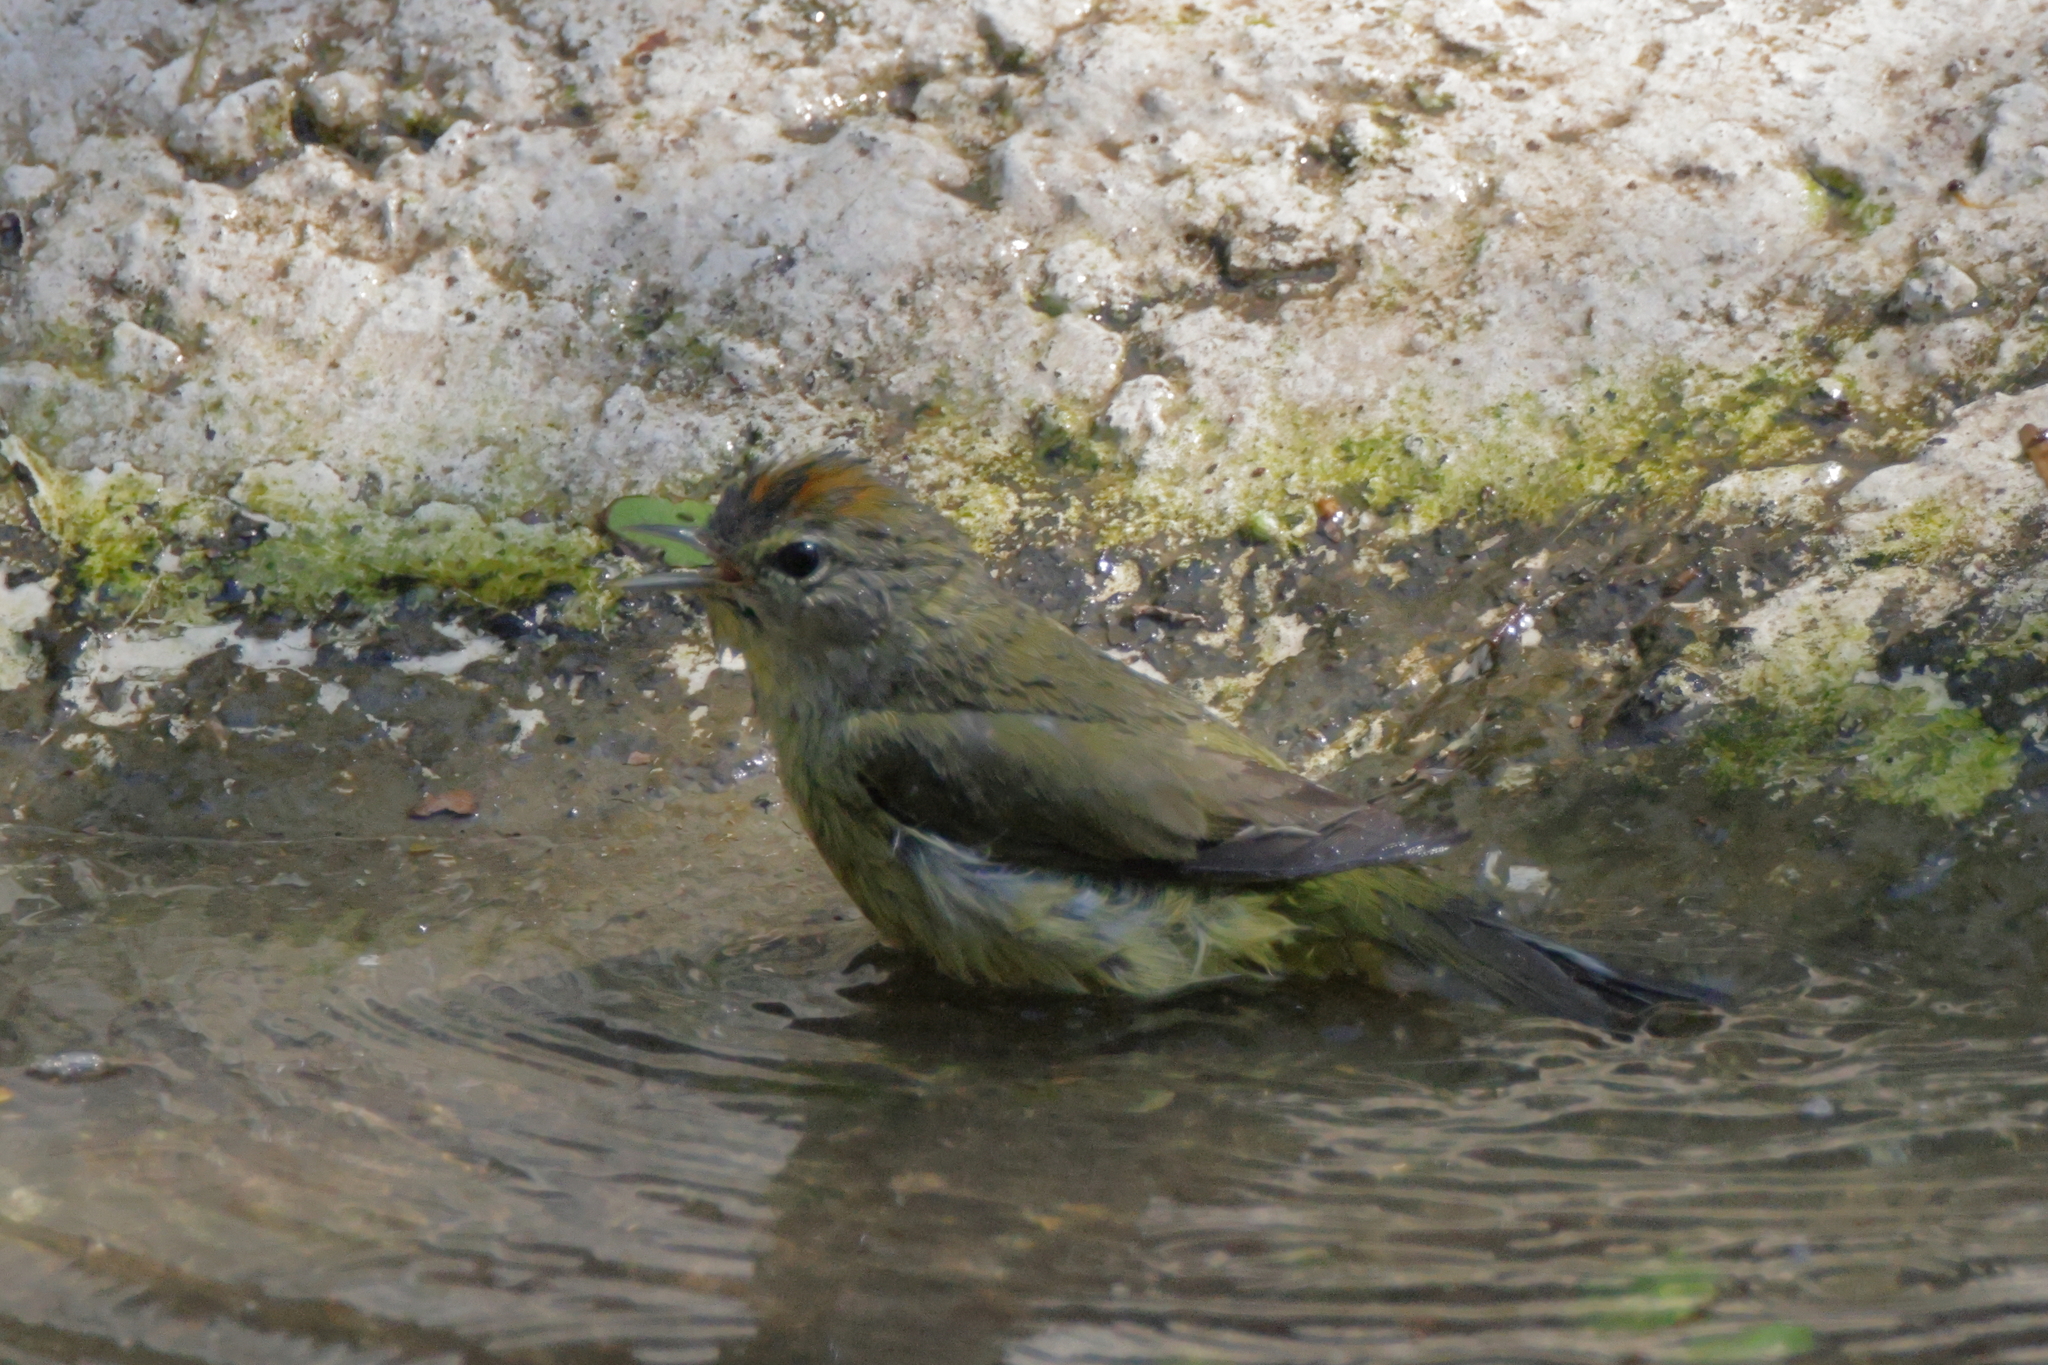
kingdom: Animalia
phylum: Chordata
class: Aves
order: Passeriformes
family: Parulidae
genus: Leiothlypis
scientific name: Leiothlypis celata
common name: Orange-crowned warbler
